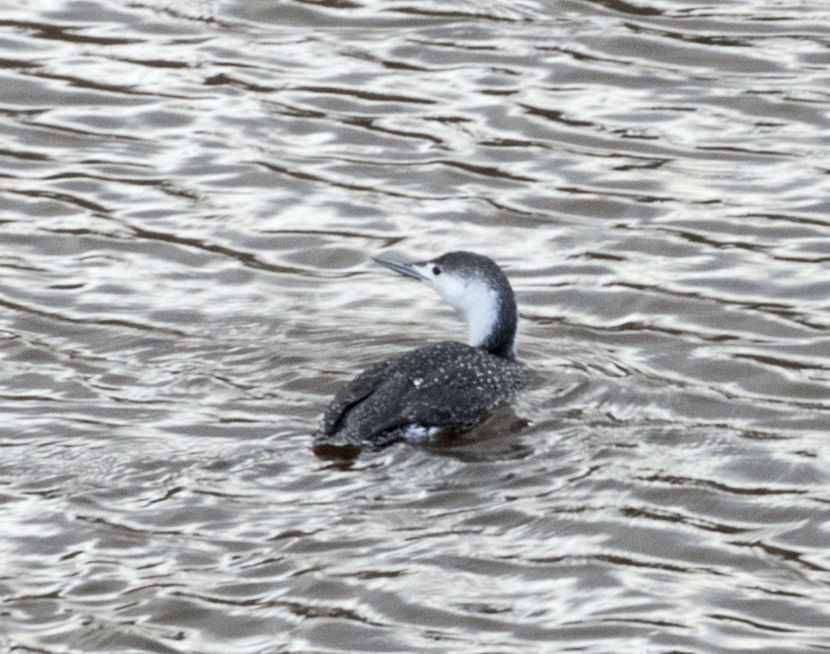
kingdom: Animalia
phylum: Chordata
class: Aves
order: Gaviiformes
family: Gaviidae
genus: Gavia
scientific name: Gavia stellata
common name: Red-throated loon
